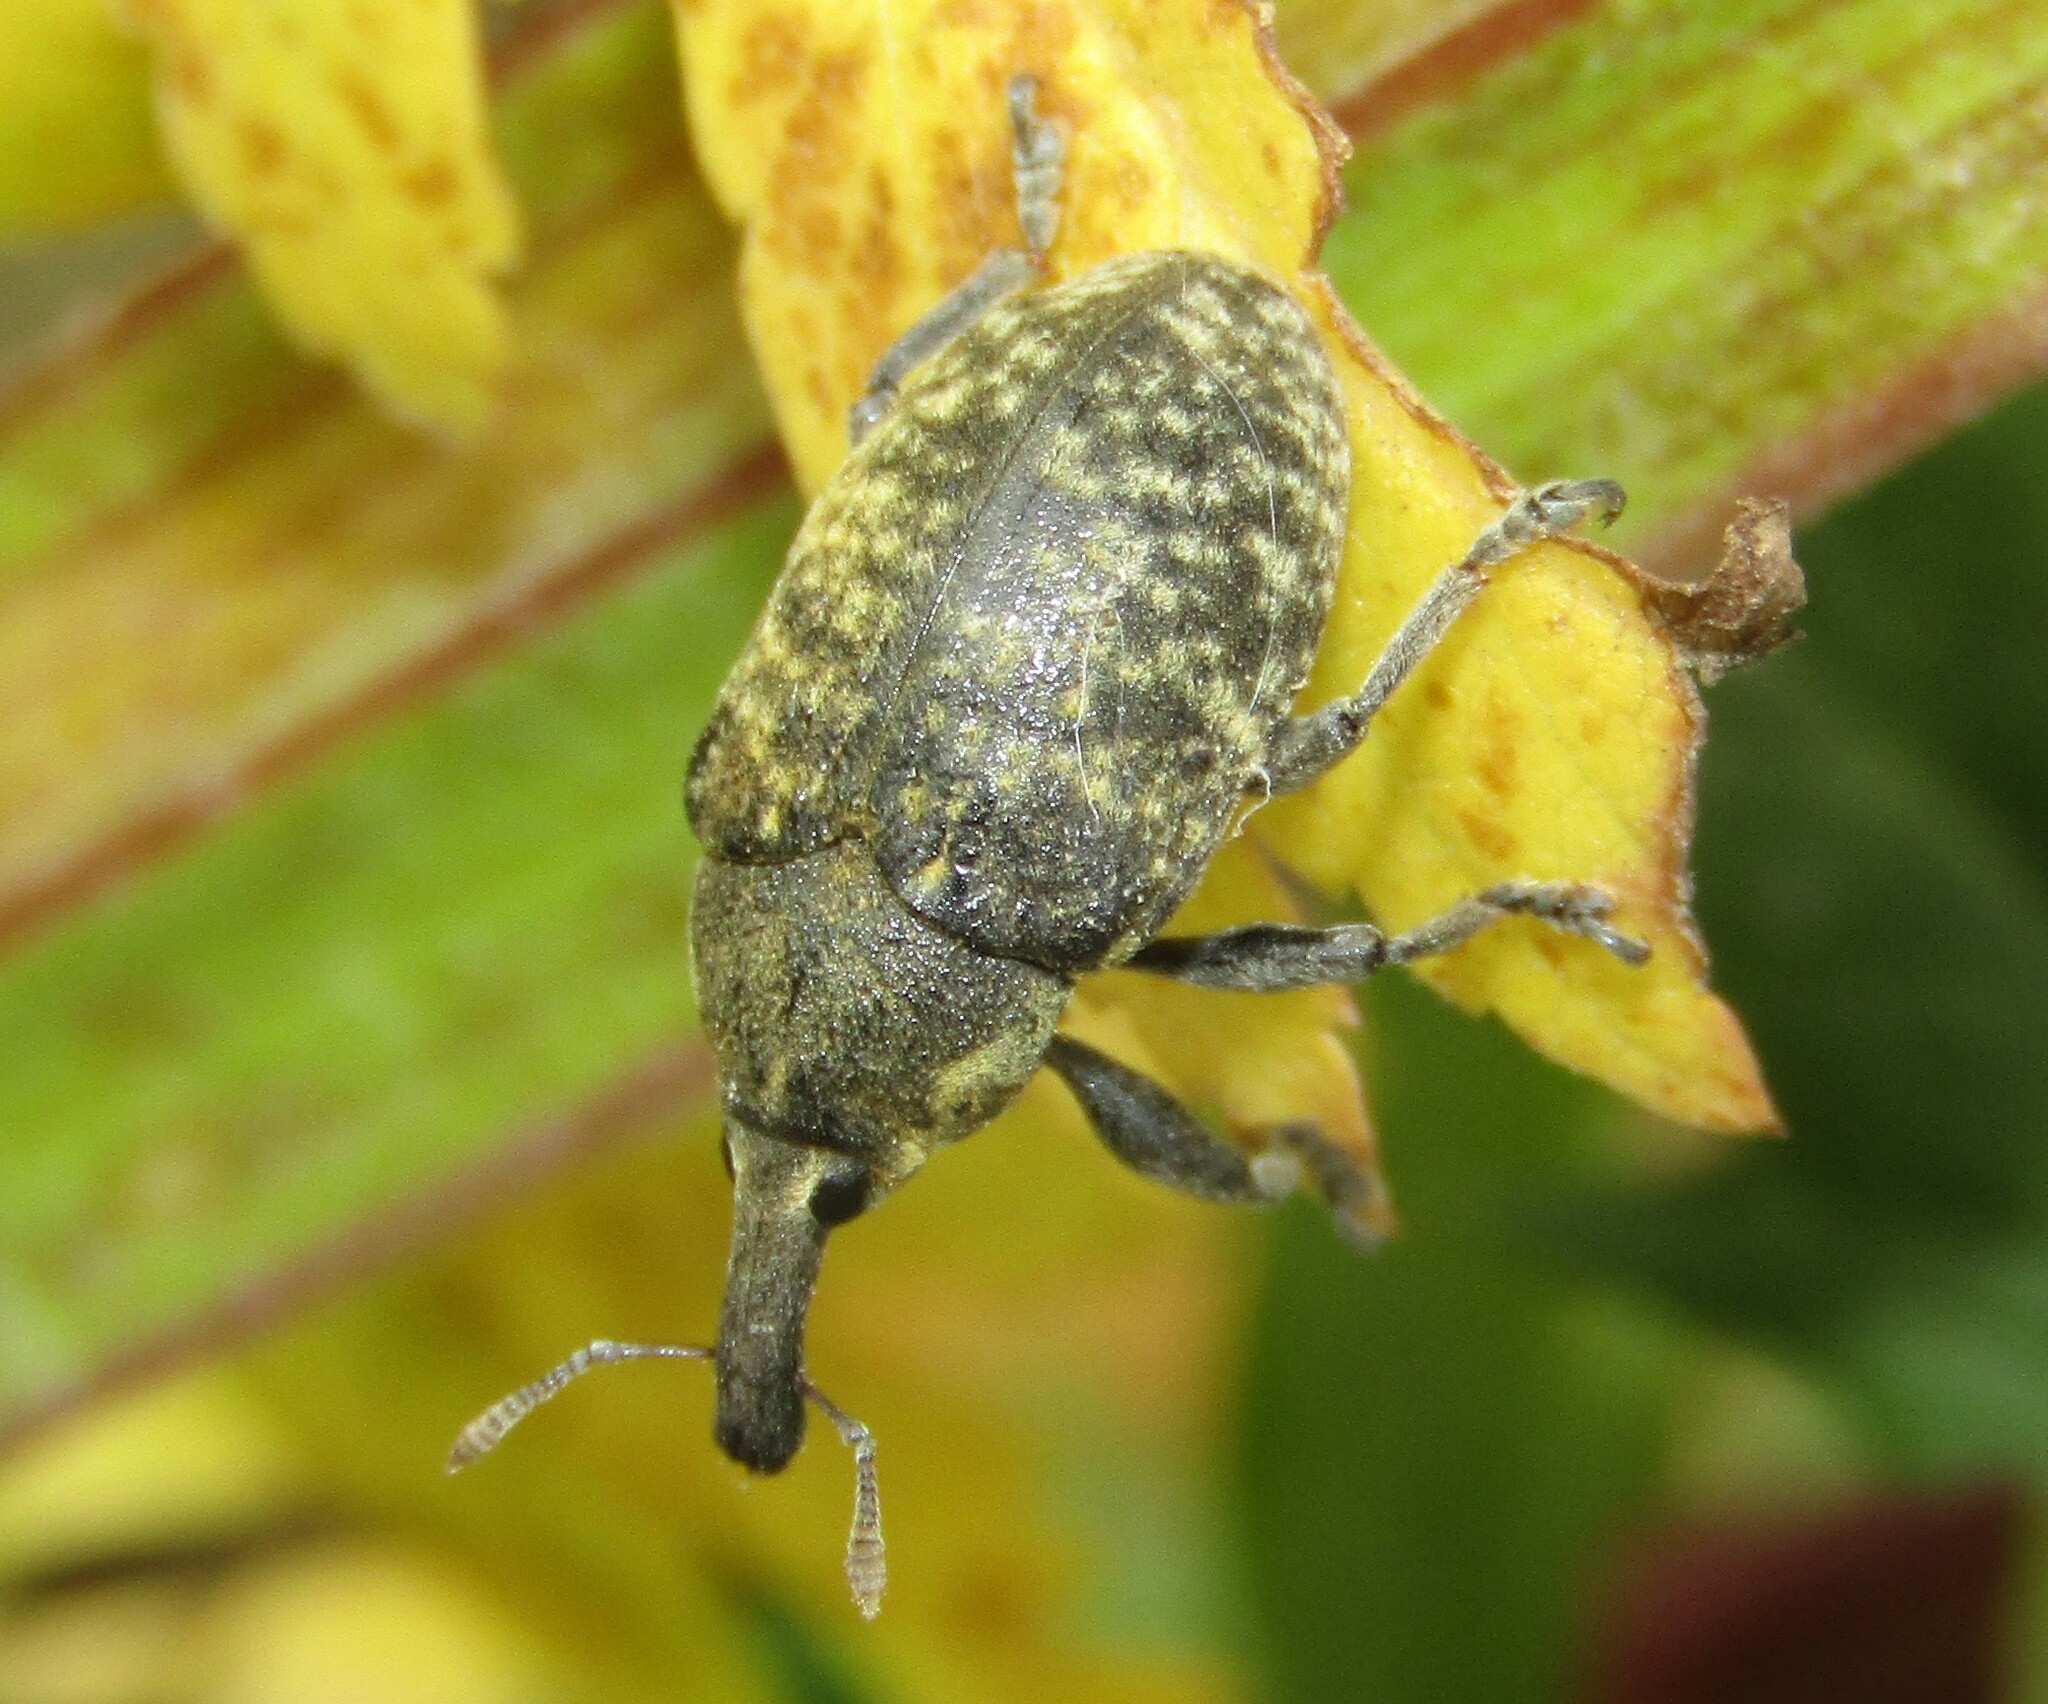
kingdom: Animalia
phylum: Arthropoda
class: Insecta
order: Coleoptera
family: Curculionidae
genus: Larinus
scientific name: Larinus sturnus
